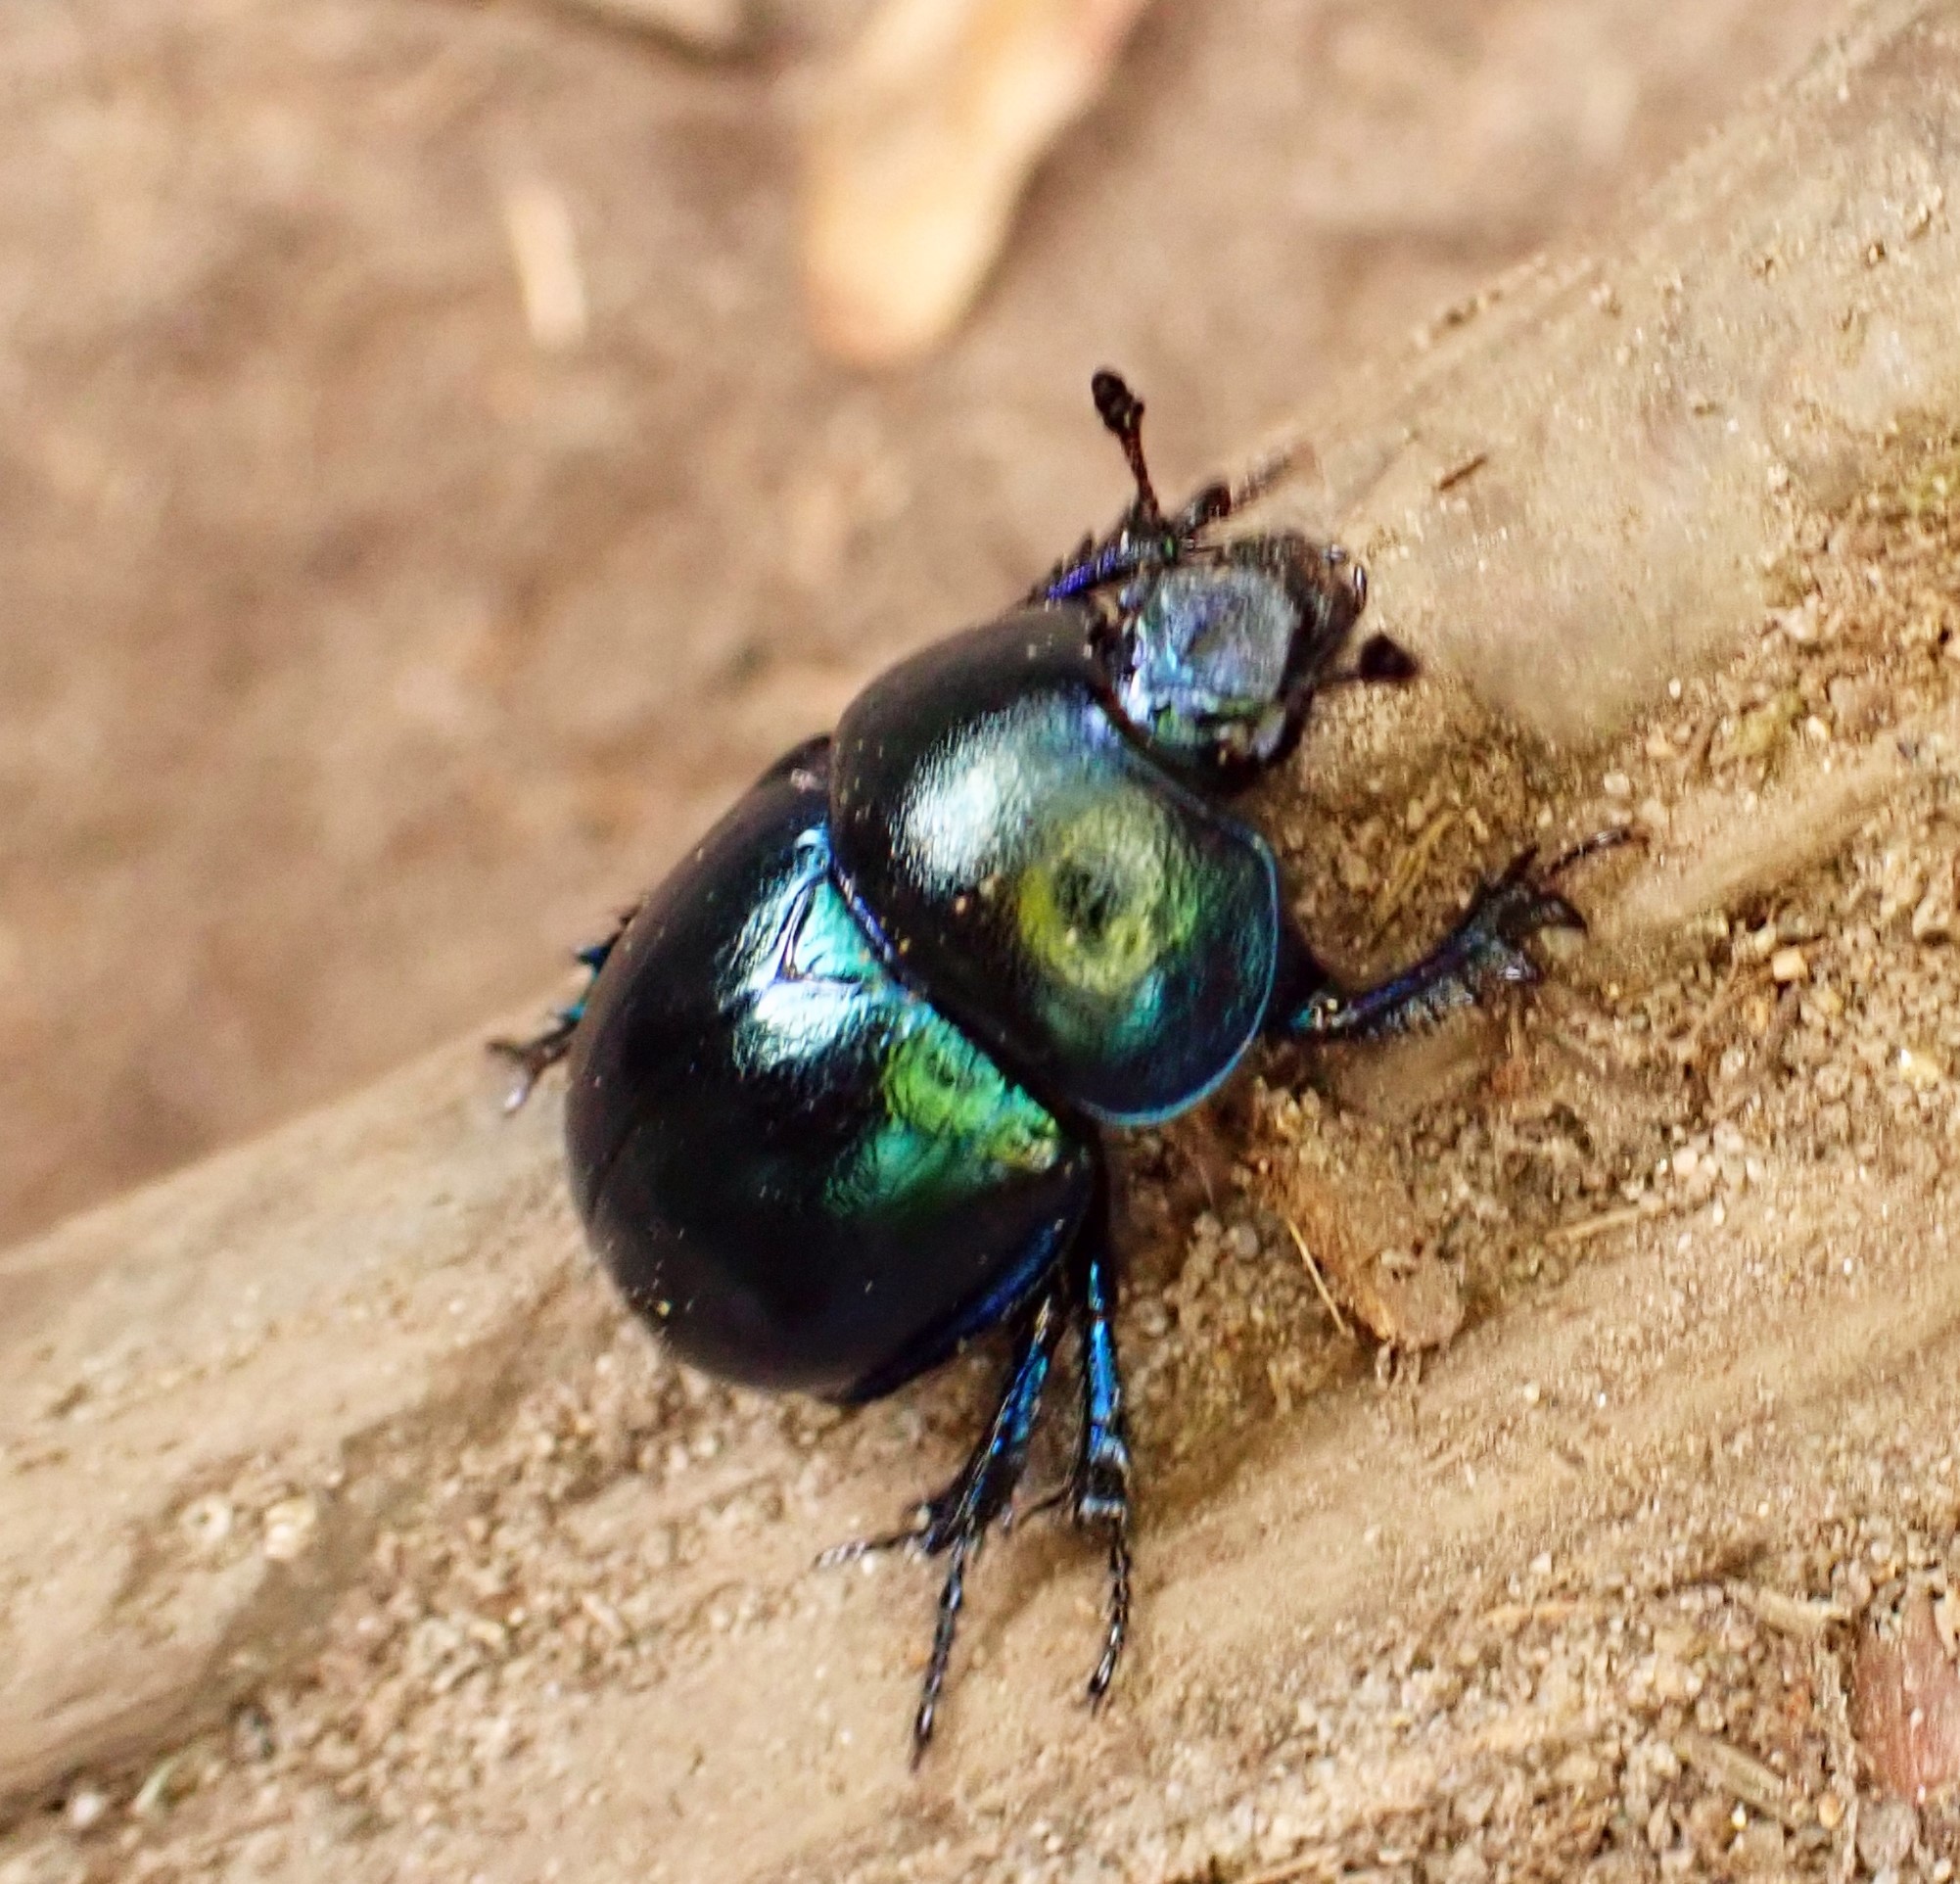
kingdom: Animalia
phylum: Arthropoda
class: Insecta
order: Coleoptera
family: Geotrupidae
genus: Trypocopris
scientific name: Trypocopris vernalis
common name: Spring dumbledor
